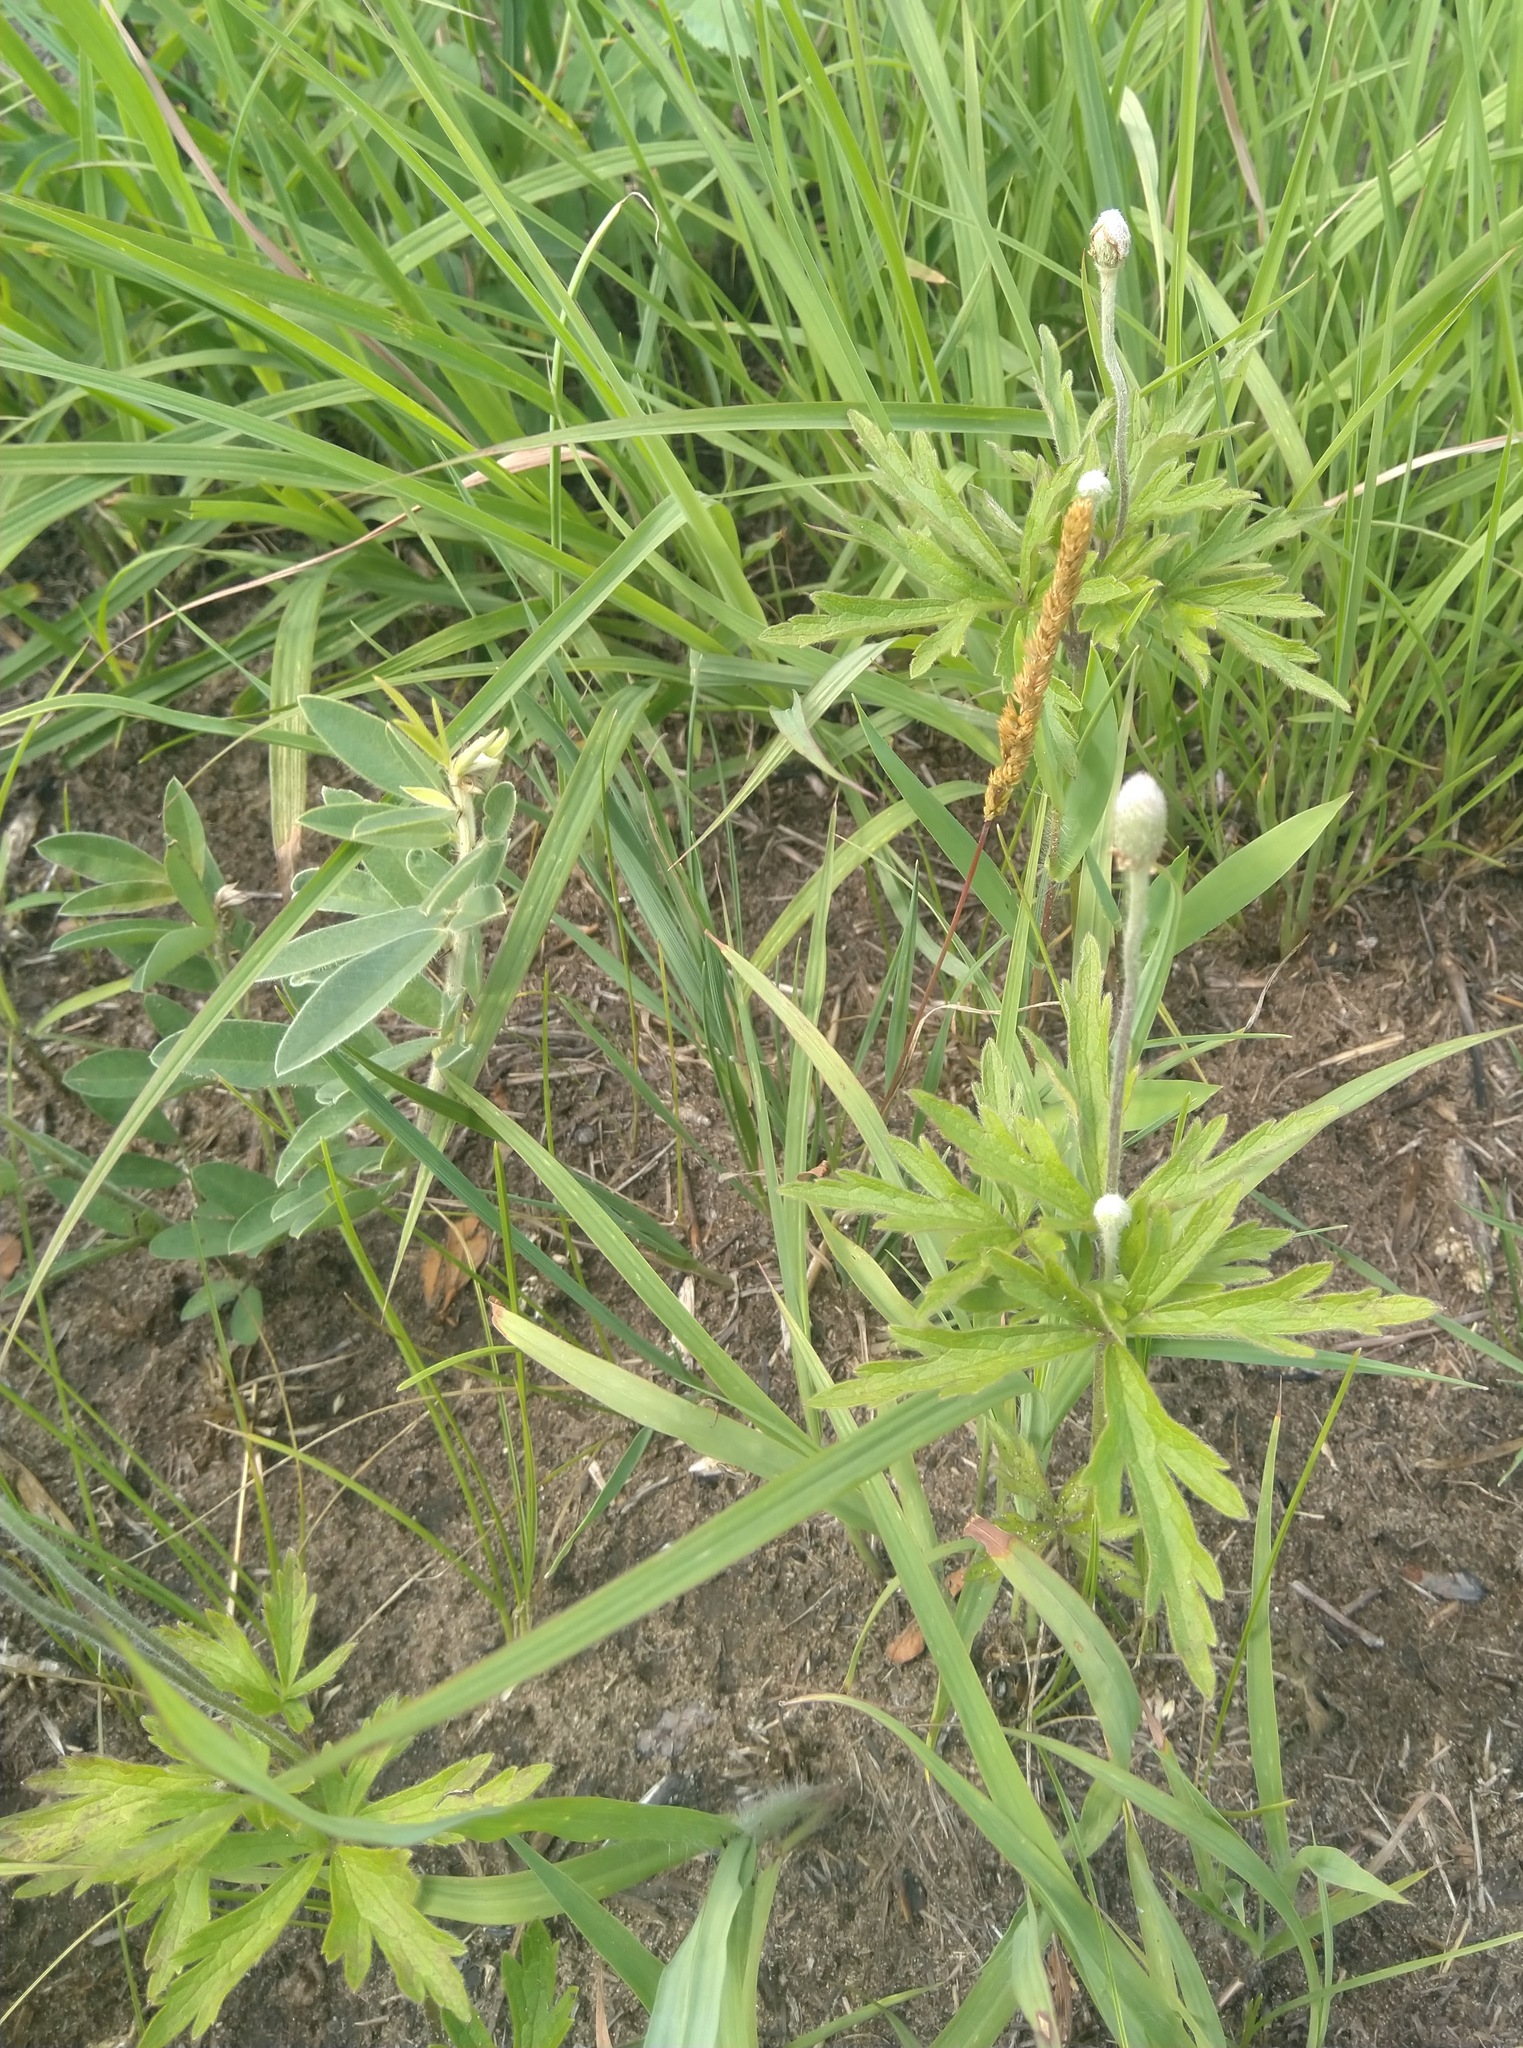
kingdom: Plantae
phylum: Tracheophyta
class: Magnoliopsida
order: Ranunculales
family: Ranunculaceae
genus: Anemone
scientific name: Anemone cylindrica
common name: Candle anemone
